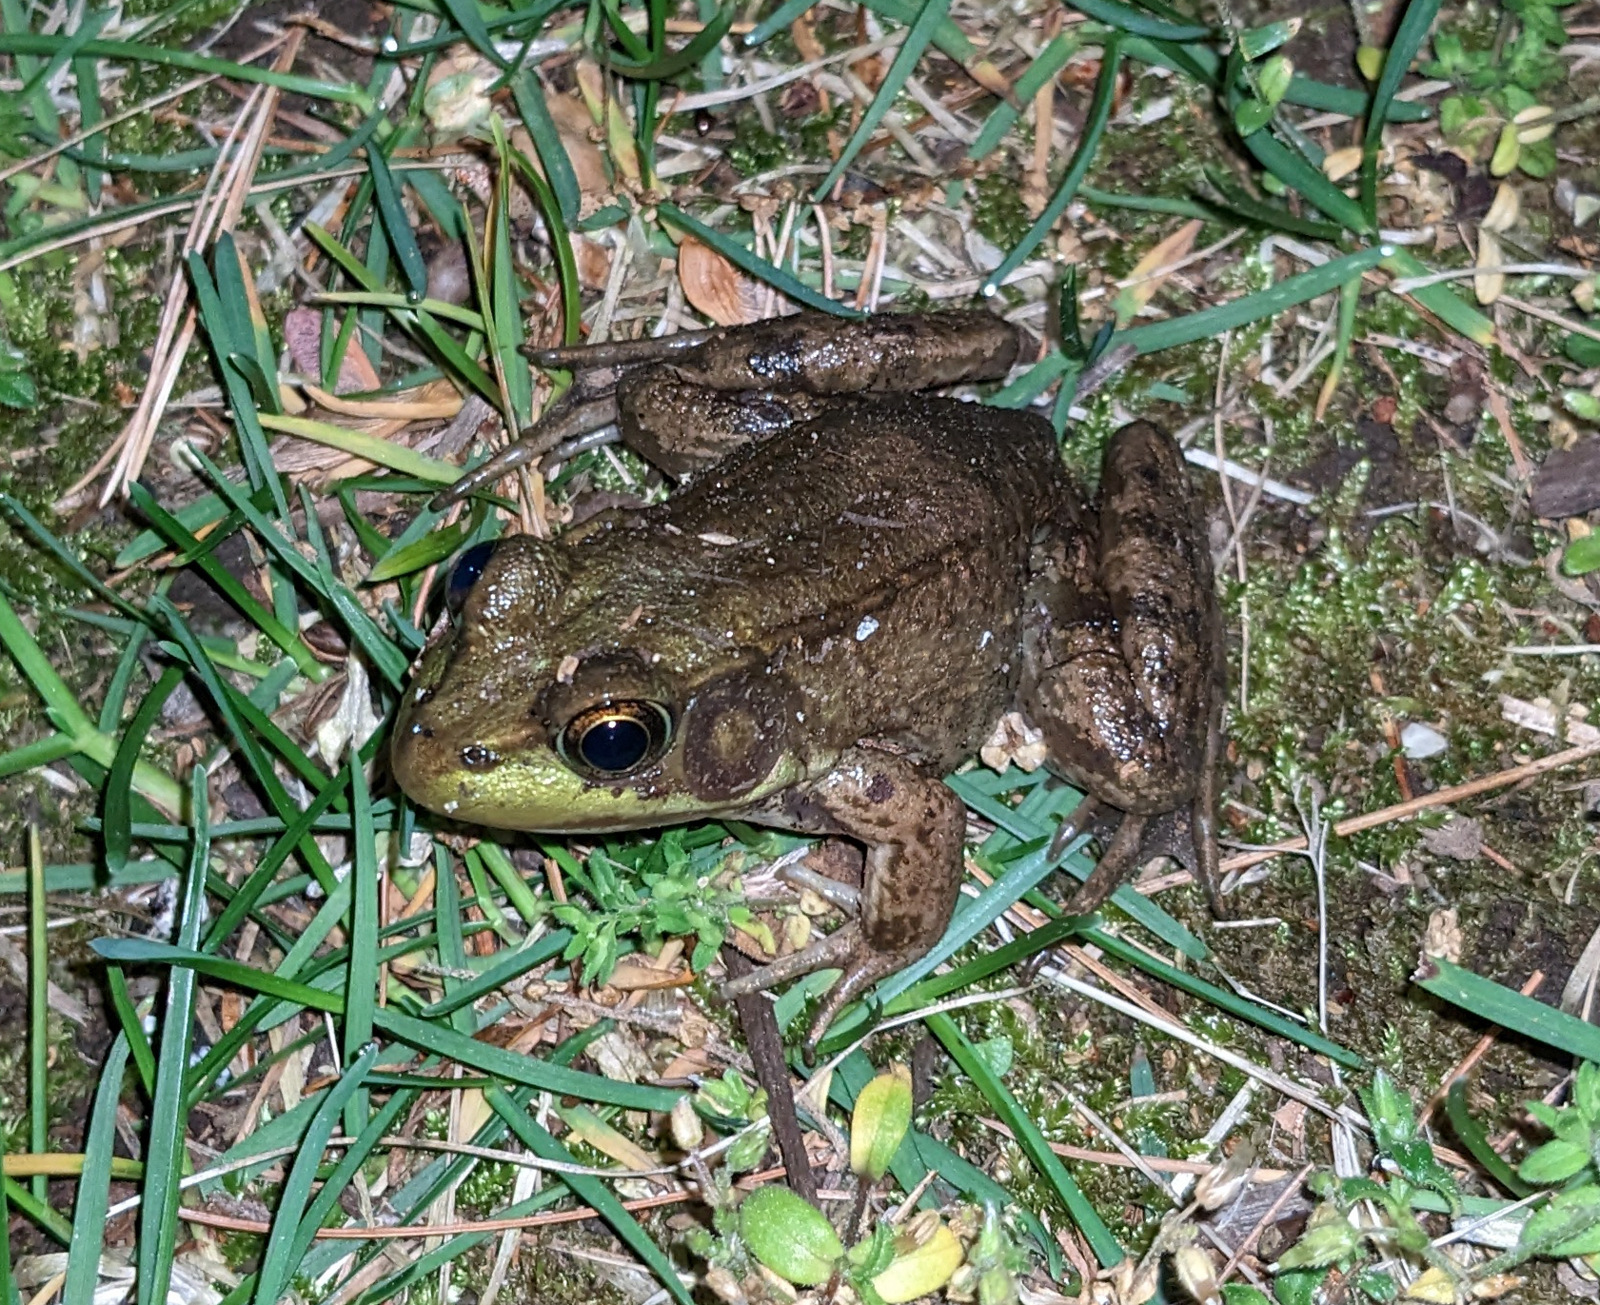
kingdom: Animalia
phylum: Chordata
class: Amphibia
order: Anura
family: Ranidae
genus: Lithobates
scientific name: Lithobates clamitans
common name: Green frog
